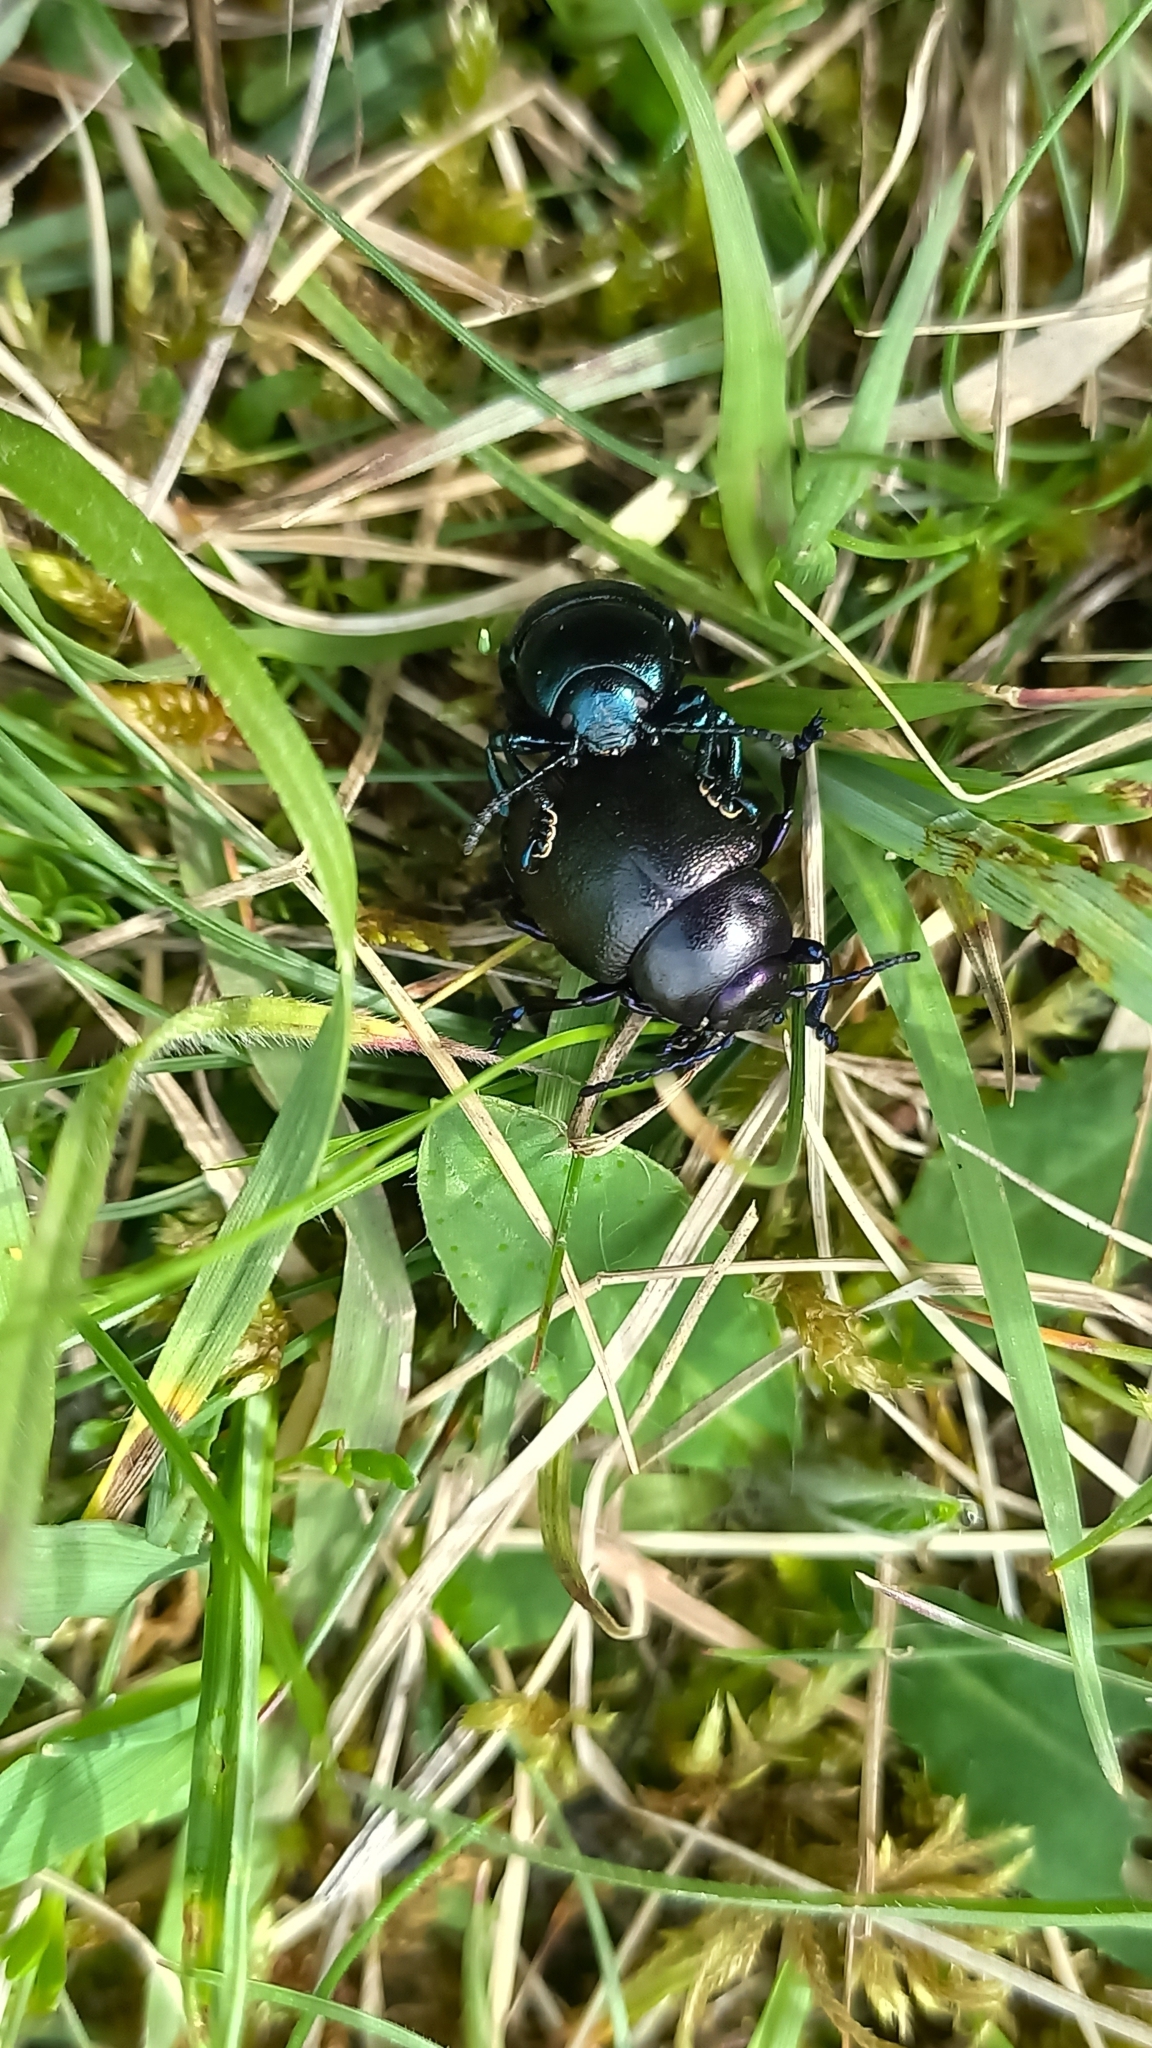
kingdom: Animalia
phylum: Arthropoda
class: Insecta
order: Coleoptera
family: Chrysomelidae
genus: Timarcha
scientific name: Timarcha goettingensis
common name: Small bloody-nosed beetle
